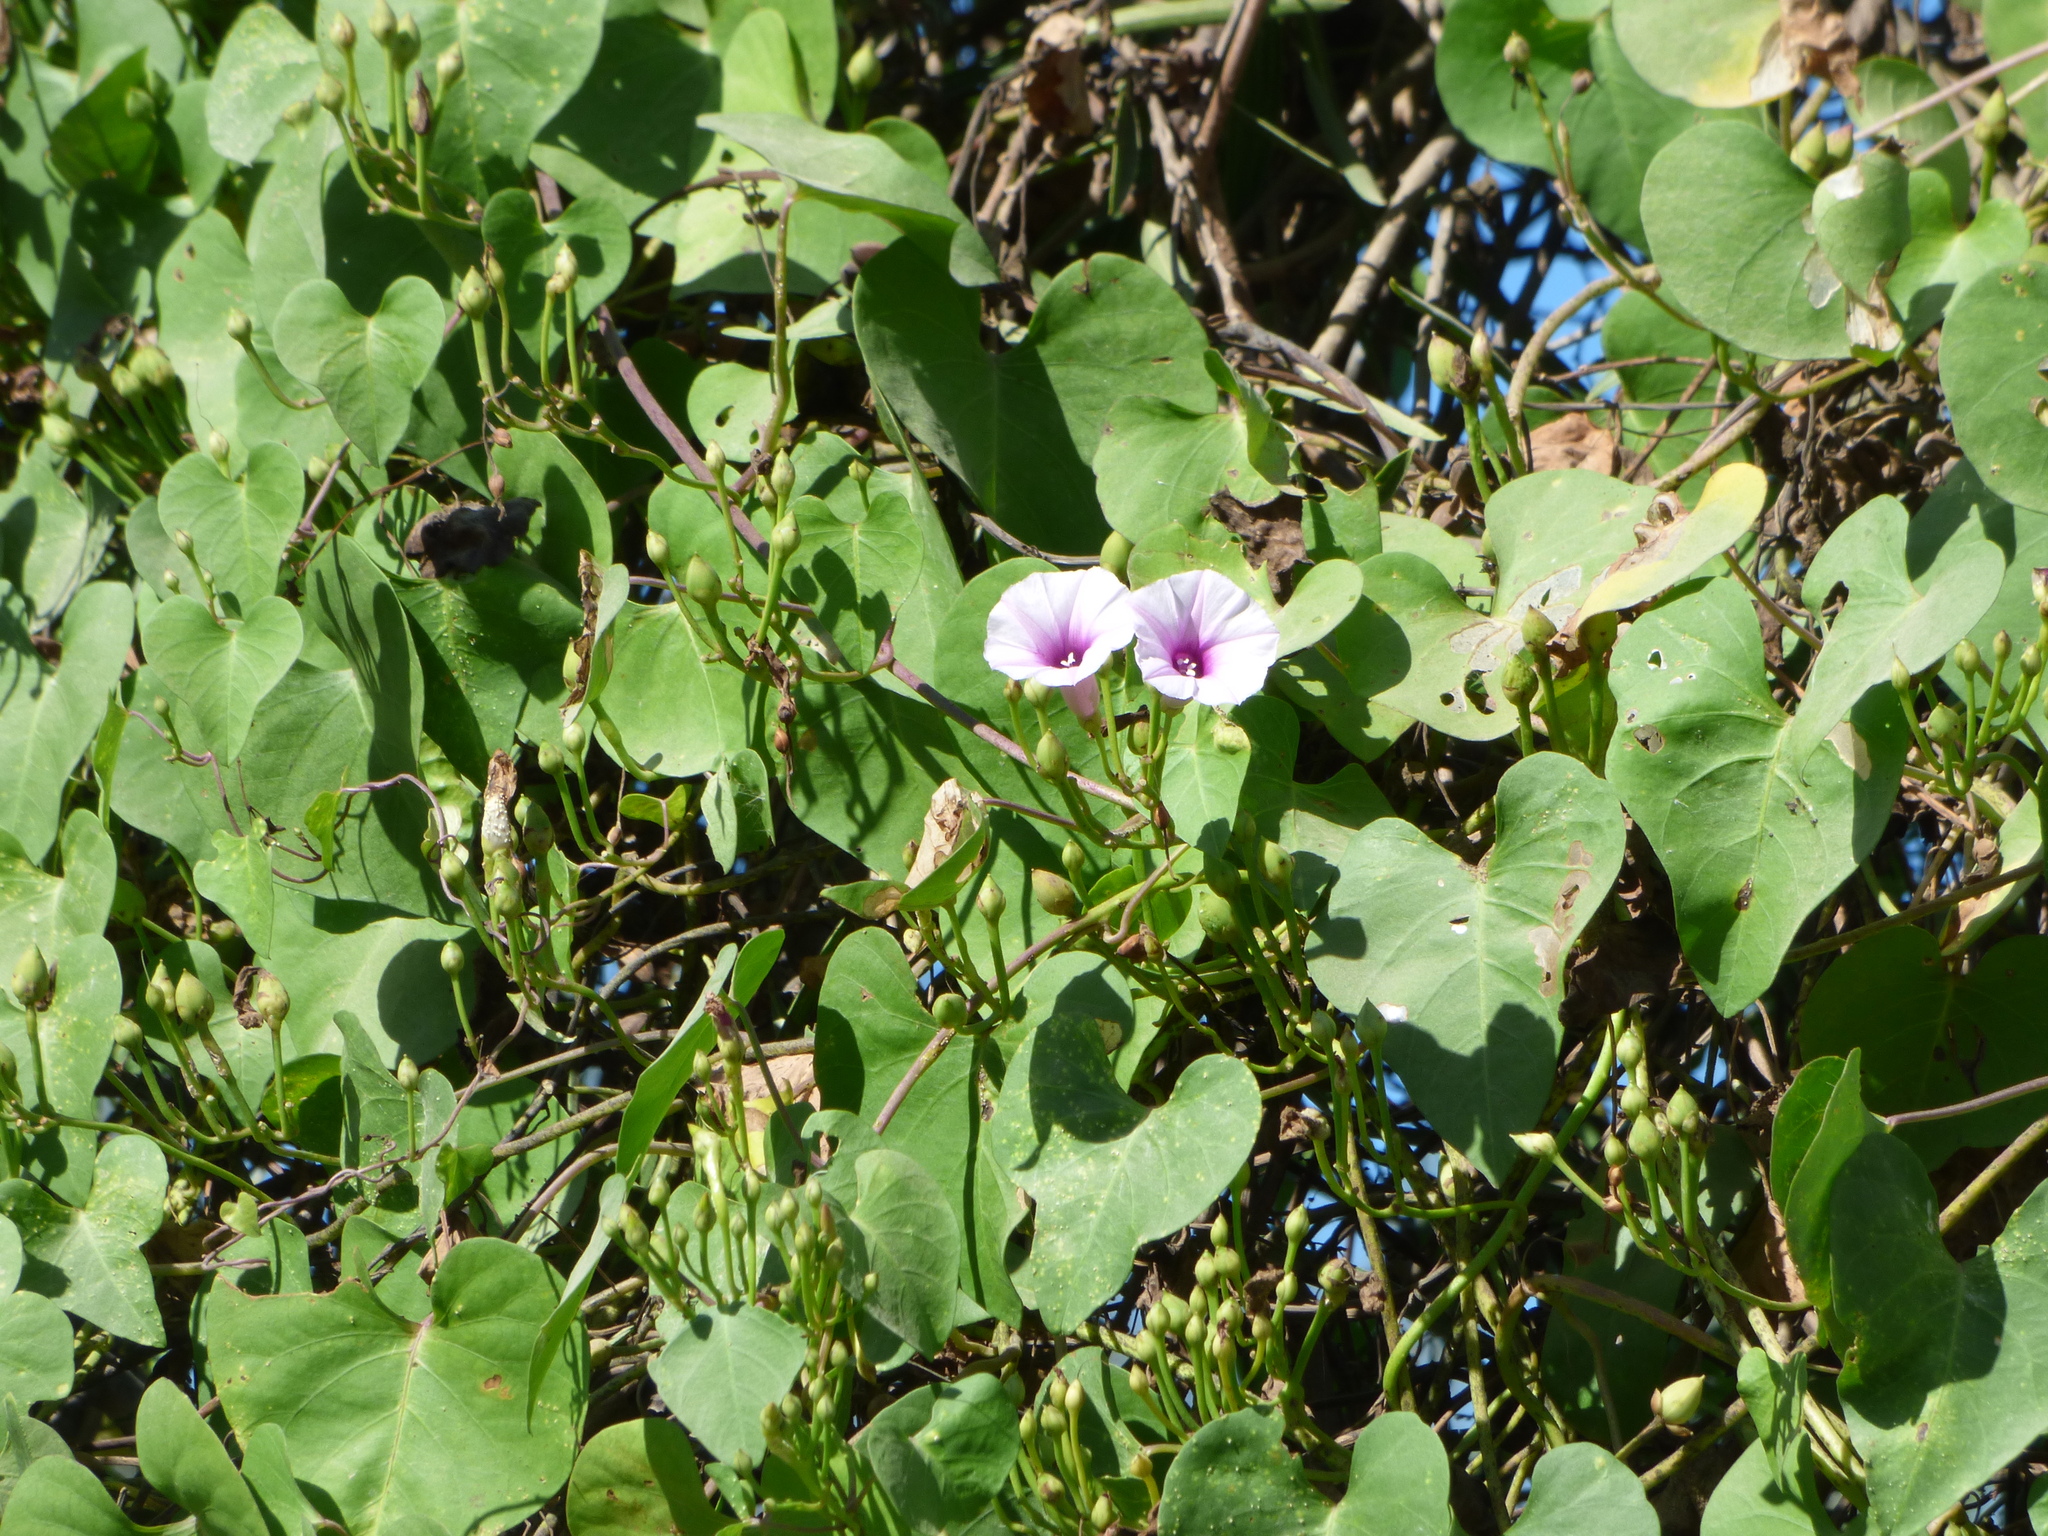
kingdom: Plantae
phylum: Tracheophyta
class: Magnoliopsida
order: Solanales
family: Convolvulaceae
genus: Ipomoea
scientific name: Ipomoea amnicola
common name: Redcenter morning-glory
